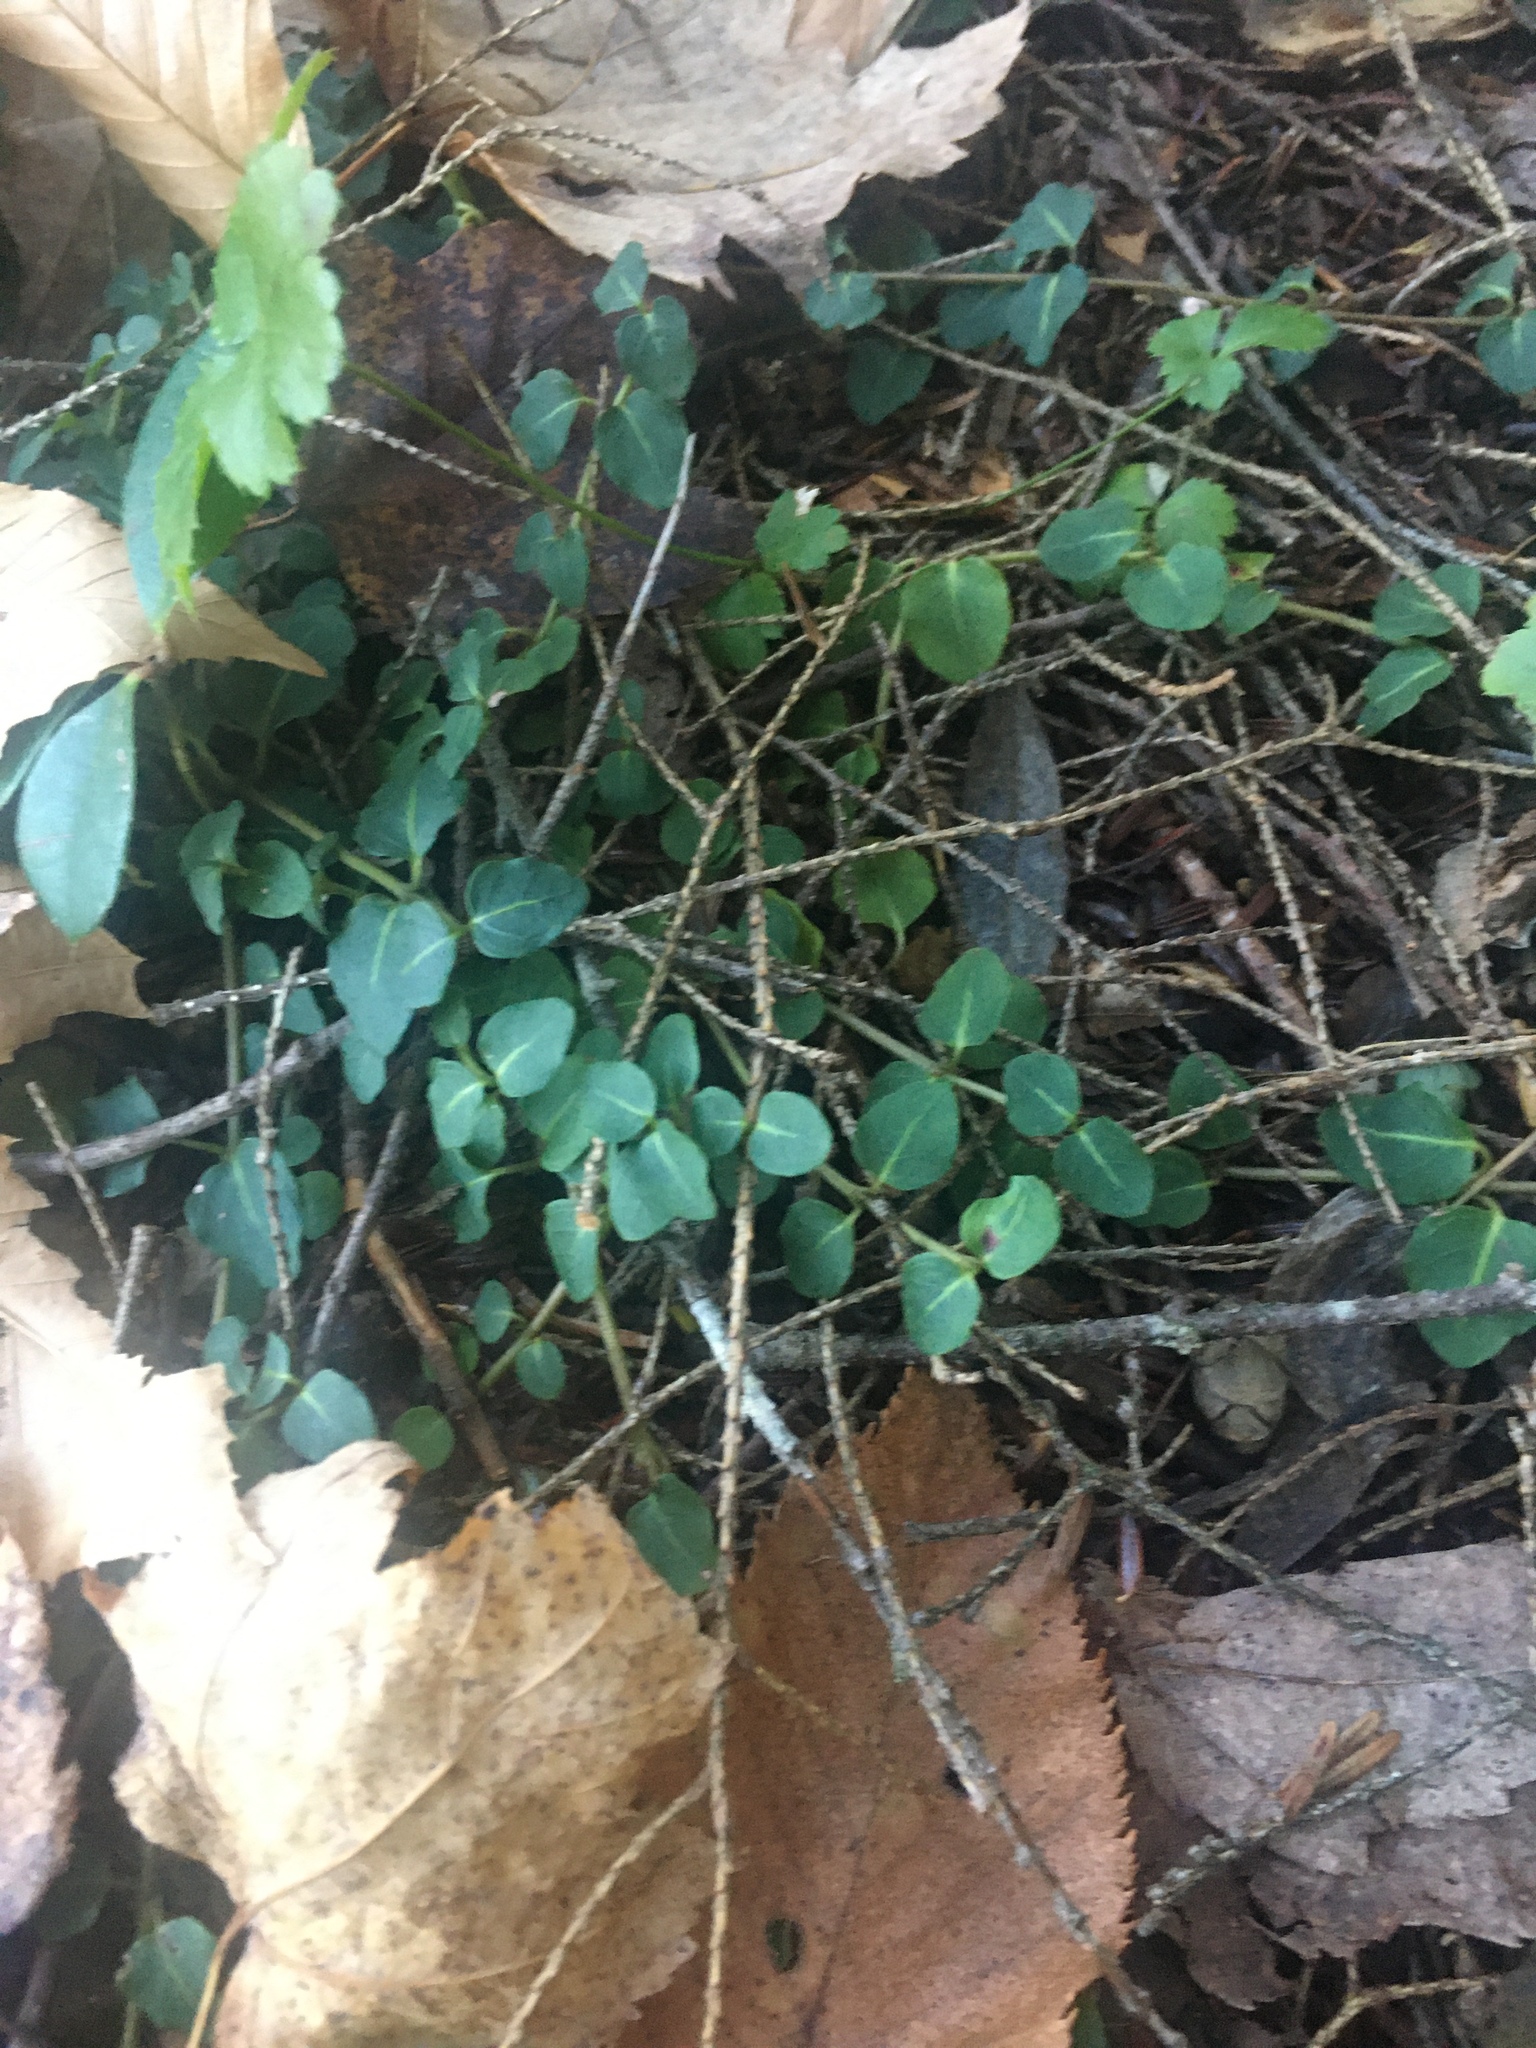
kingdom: Plantae
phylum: Tracheophyta
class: Magnoliopsida
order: Gentianales
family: Rubiaceae
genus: Mitchella
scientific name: Mitchella repens
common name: Partridge-berry
